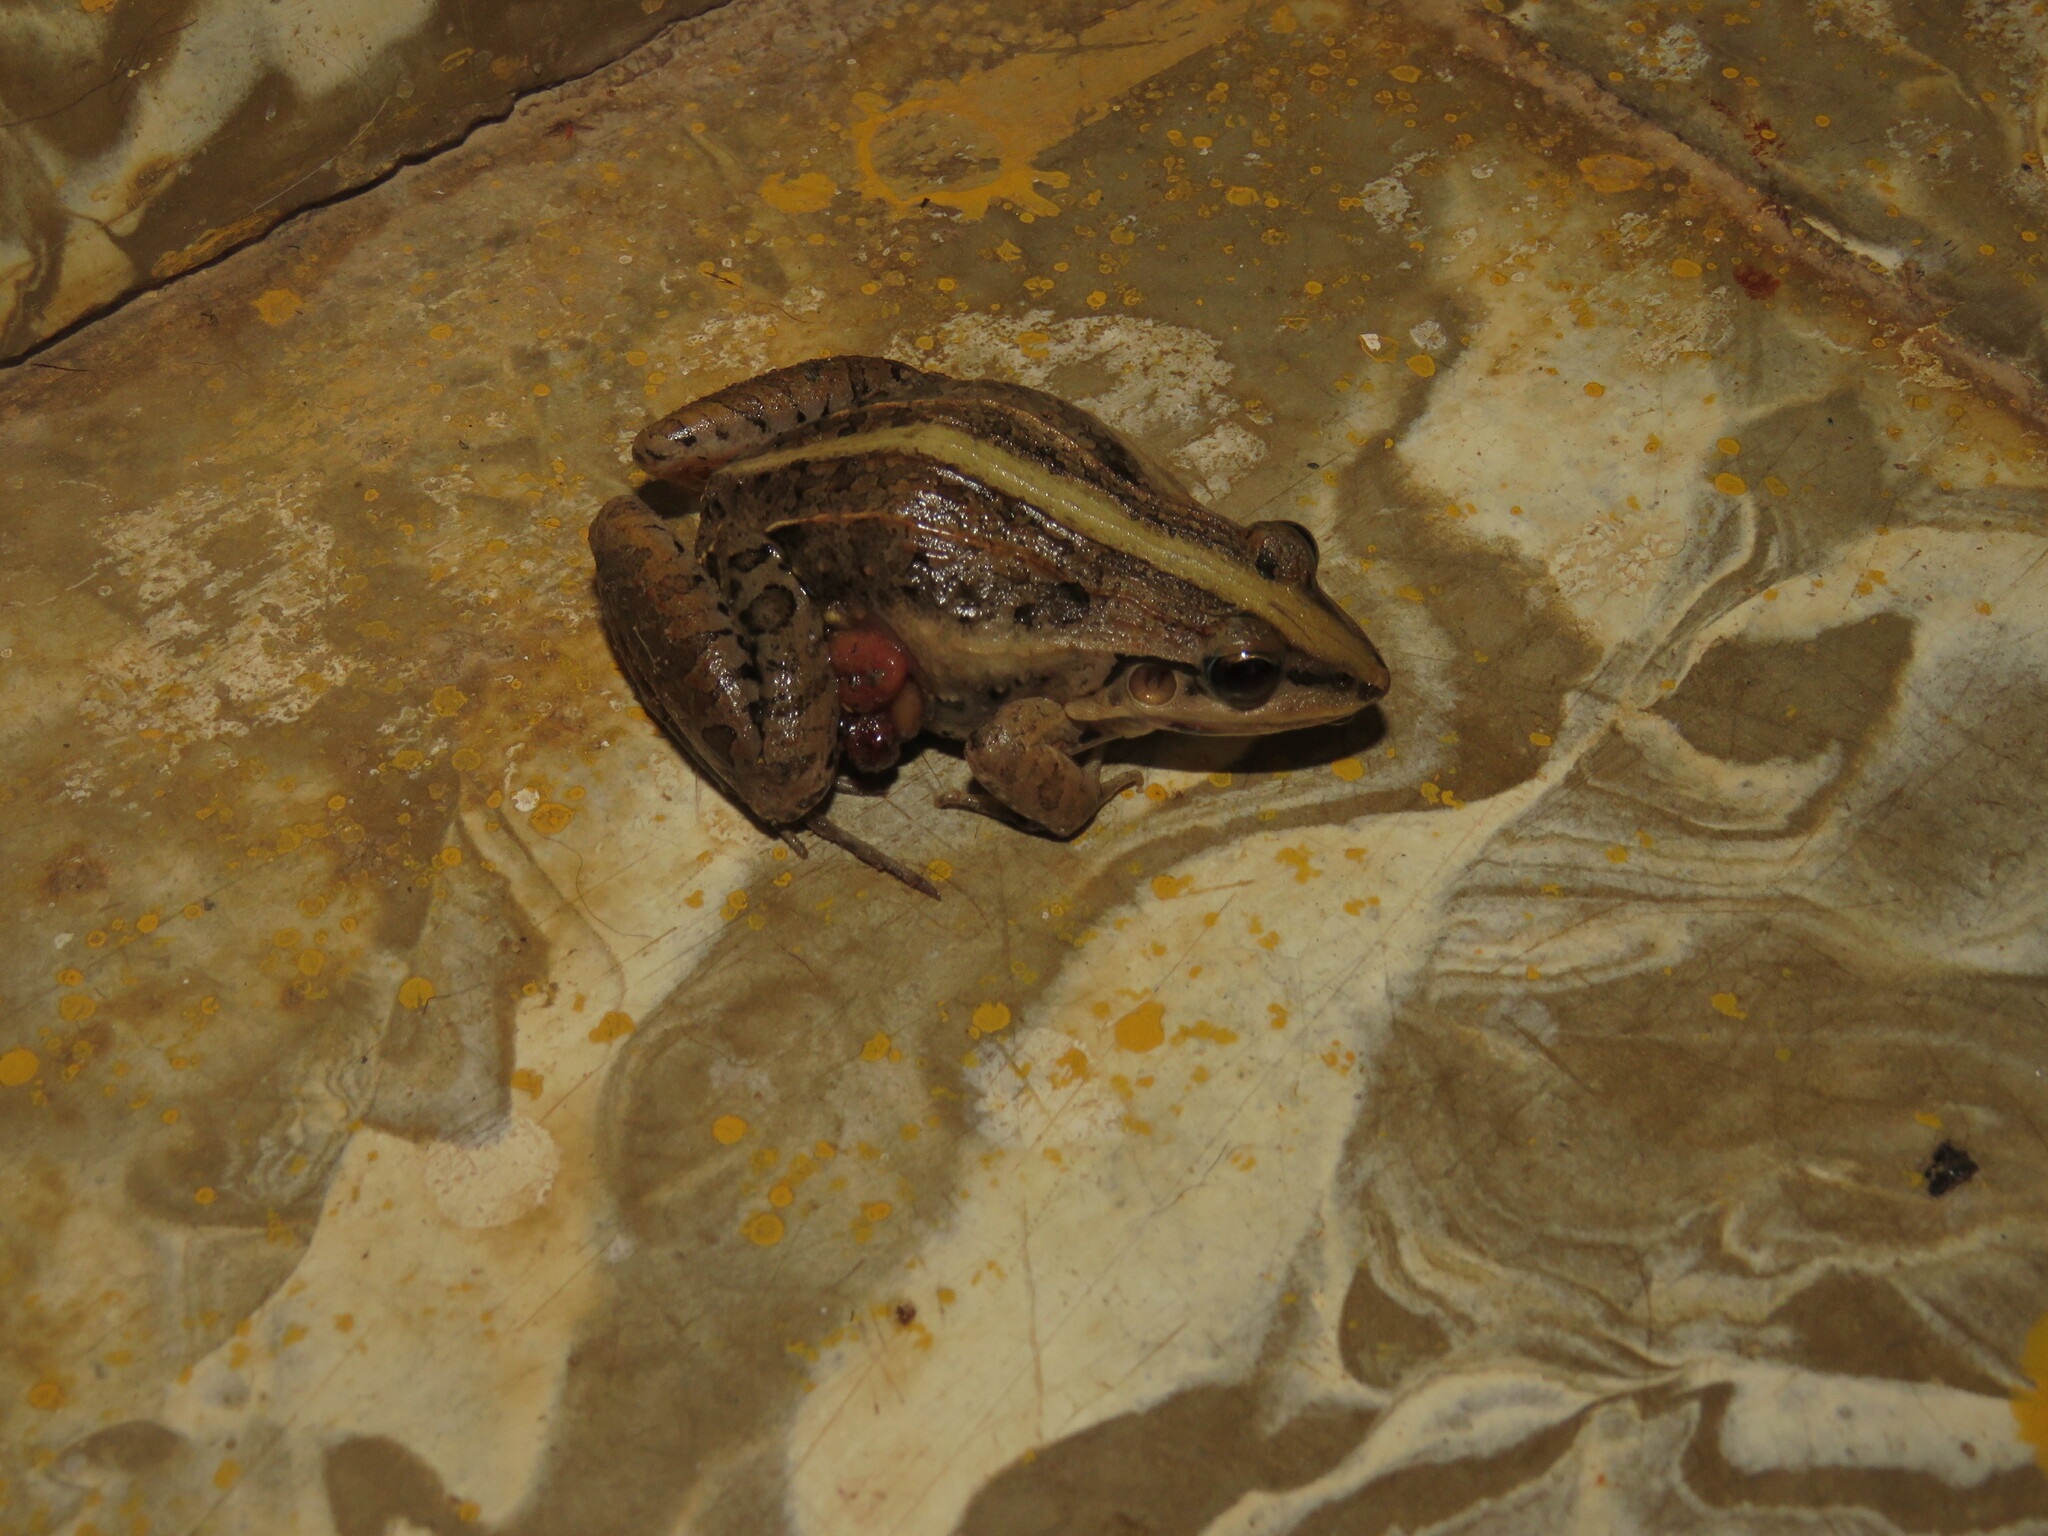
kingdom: Animalia
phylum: Chordata
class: Amphibia
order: Anura
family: Leptodactylidae
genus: Leptodactylus
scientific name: Leptodactylus fuscus
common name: Rufous frog
